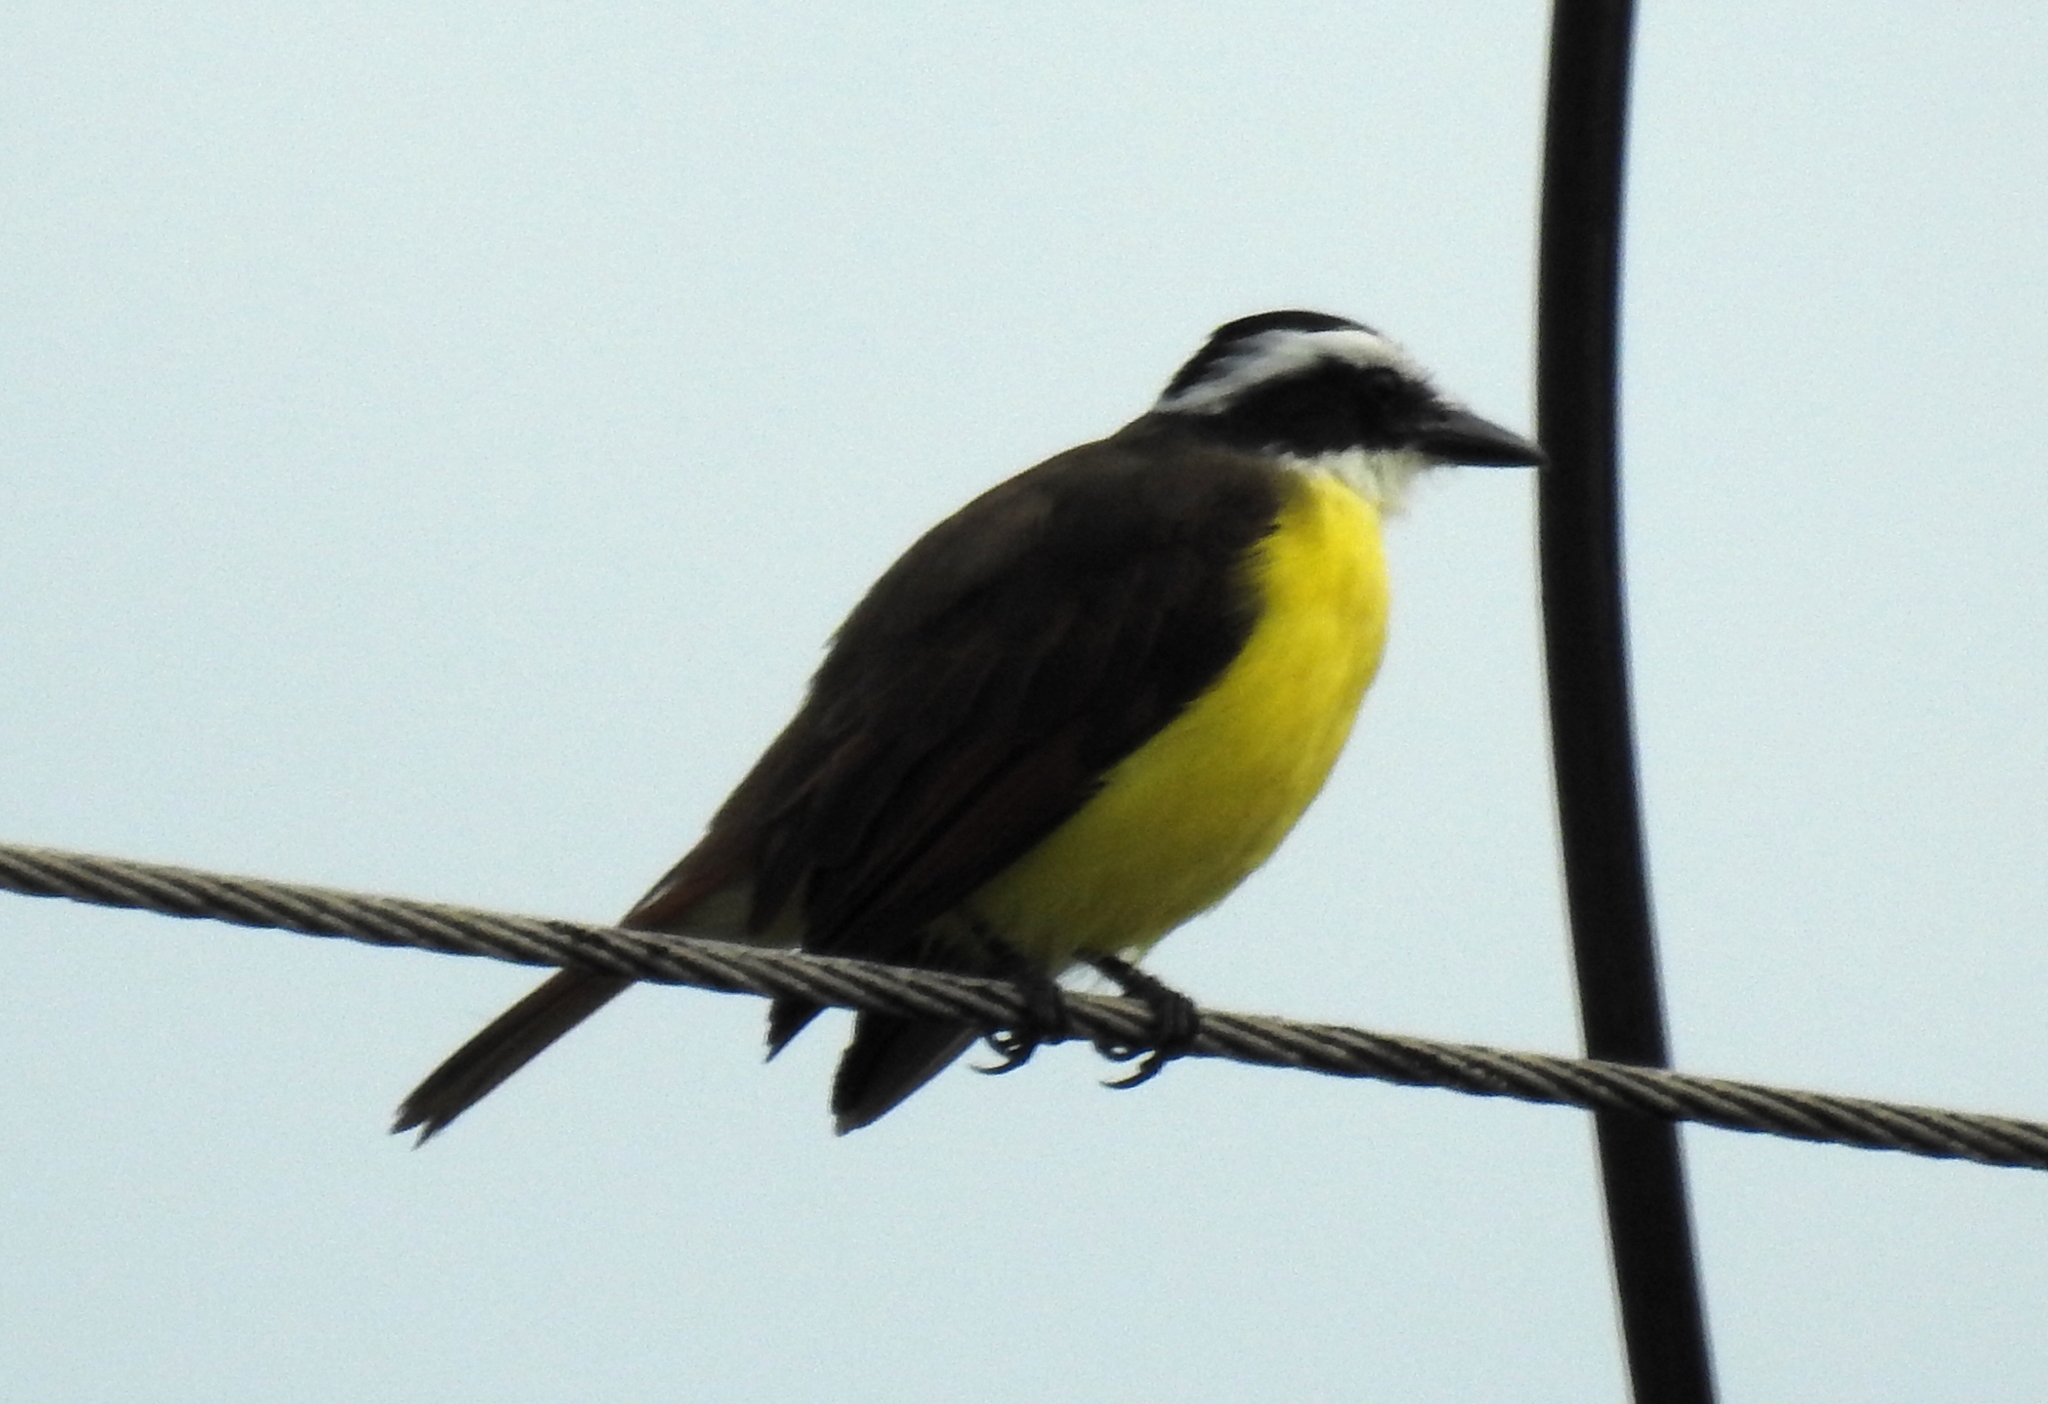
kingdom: Animalia
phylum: Chordata
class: Aves
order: Passeriformes
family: Tyrannidae
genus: Pitangus
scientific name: Pitangus sulphuratus
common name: Great kiskadee
